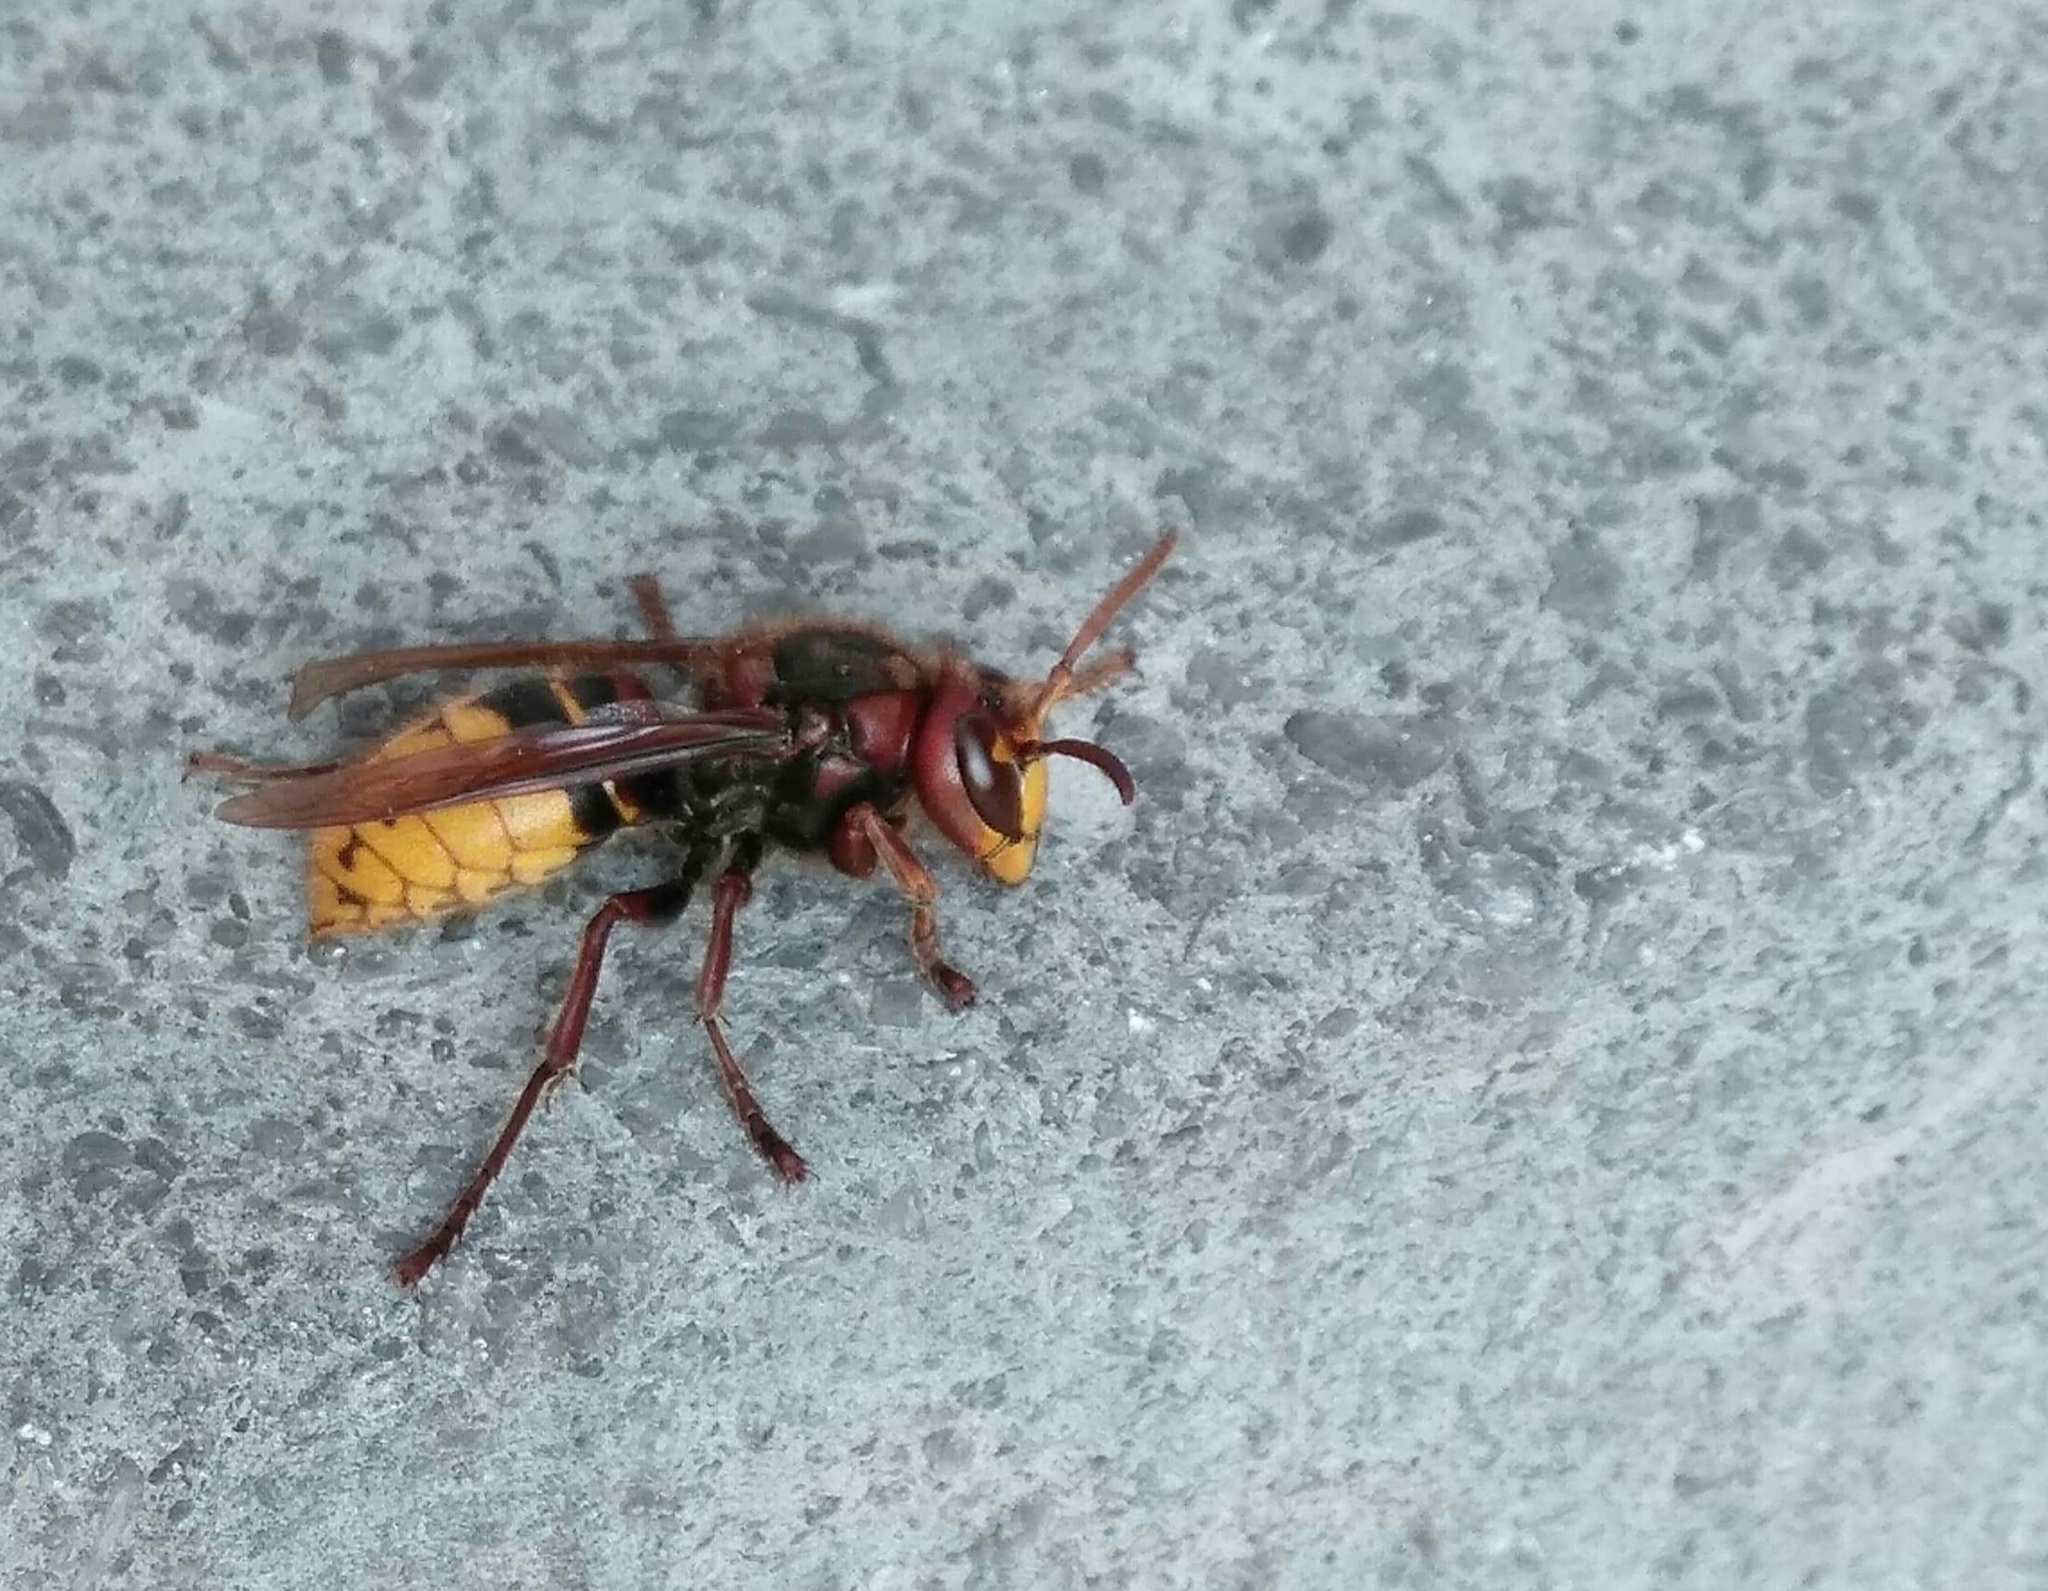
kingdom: Animalia
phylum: Arthropoda
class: Insecta
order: Hymenoptera
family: Vespidae
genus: Vespa
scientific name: Vespa crabro
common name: Hornet
